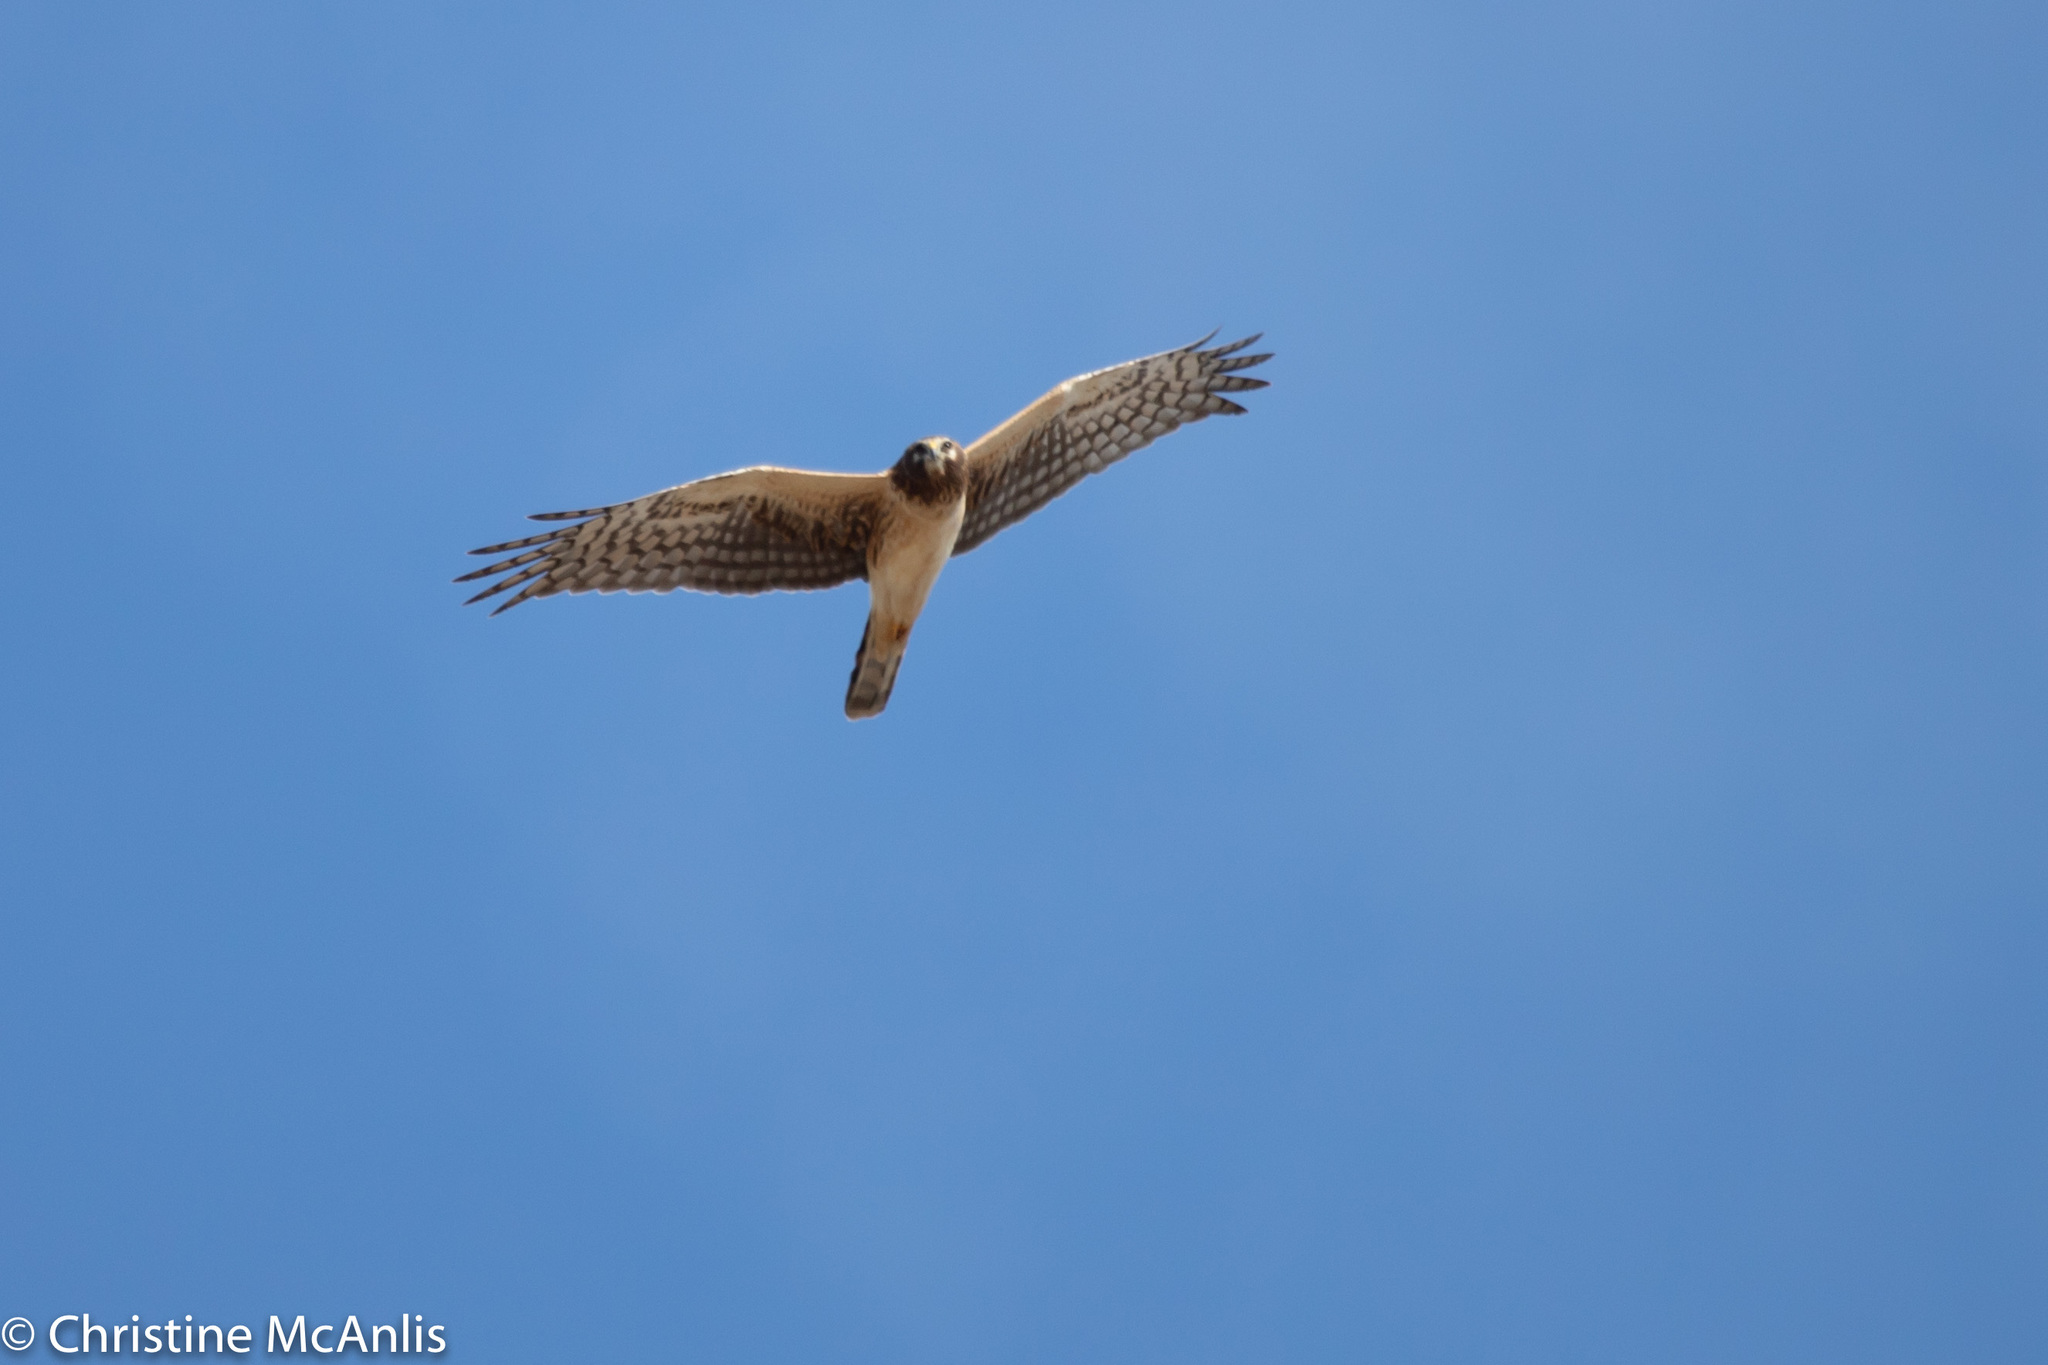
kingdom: Animalia
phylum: Chordata
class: Aves
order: Accipitriformes
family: Accipitridae
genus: Circus
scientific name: Circus cyaneus
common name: Hen harrier
